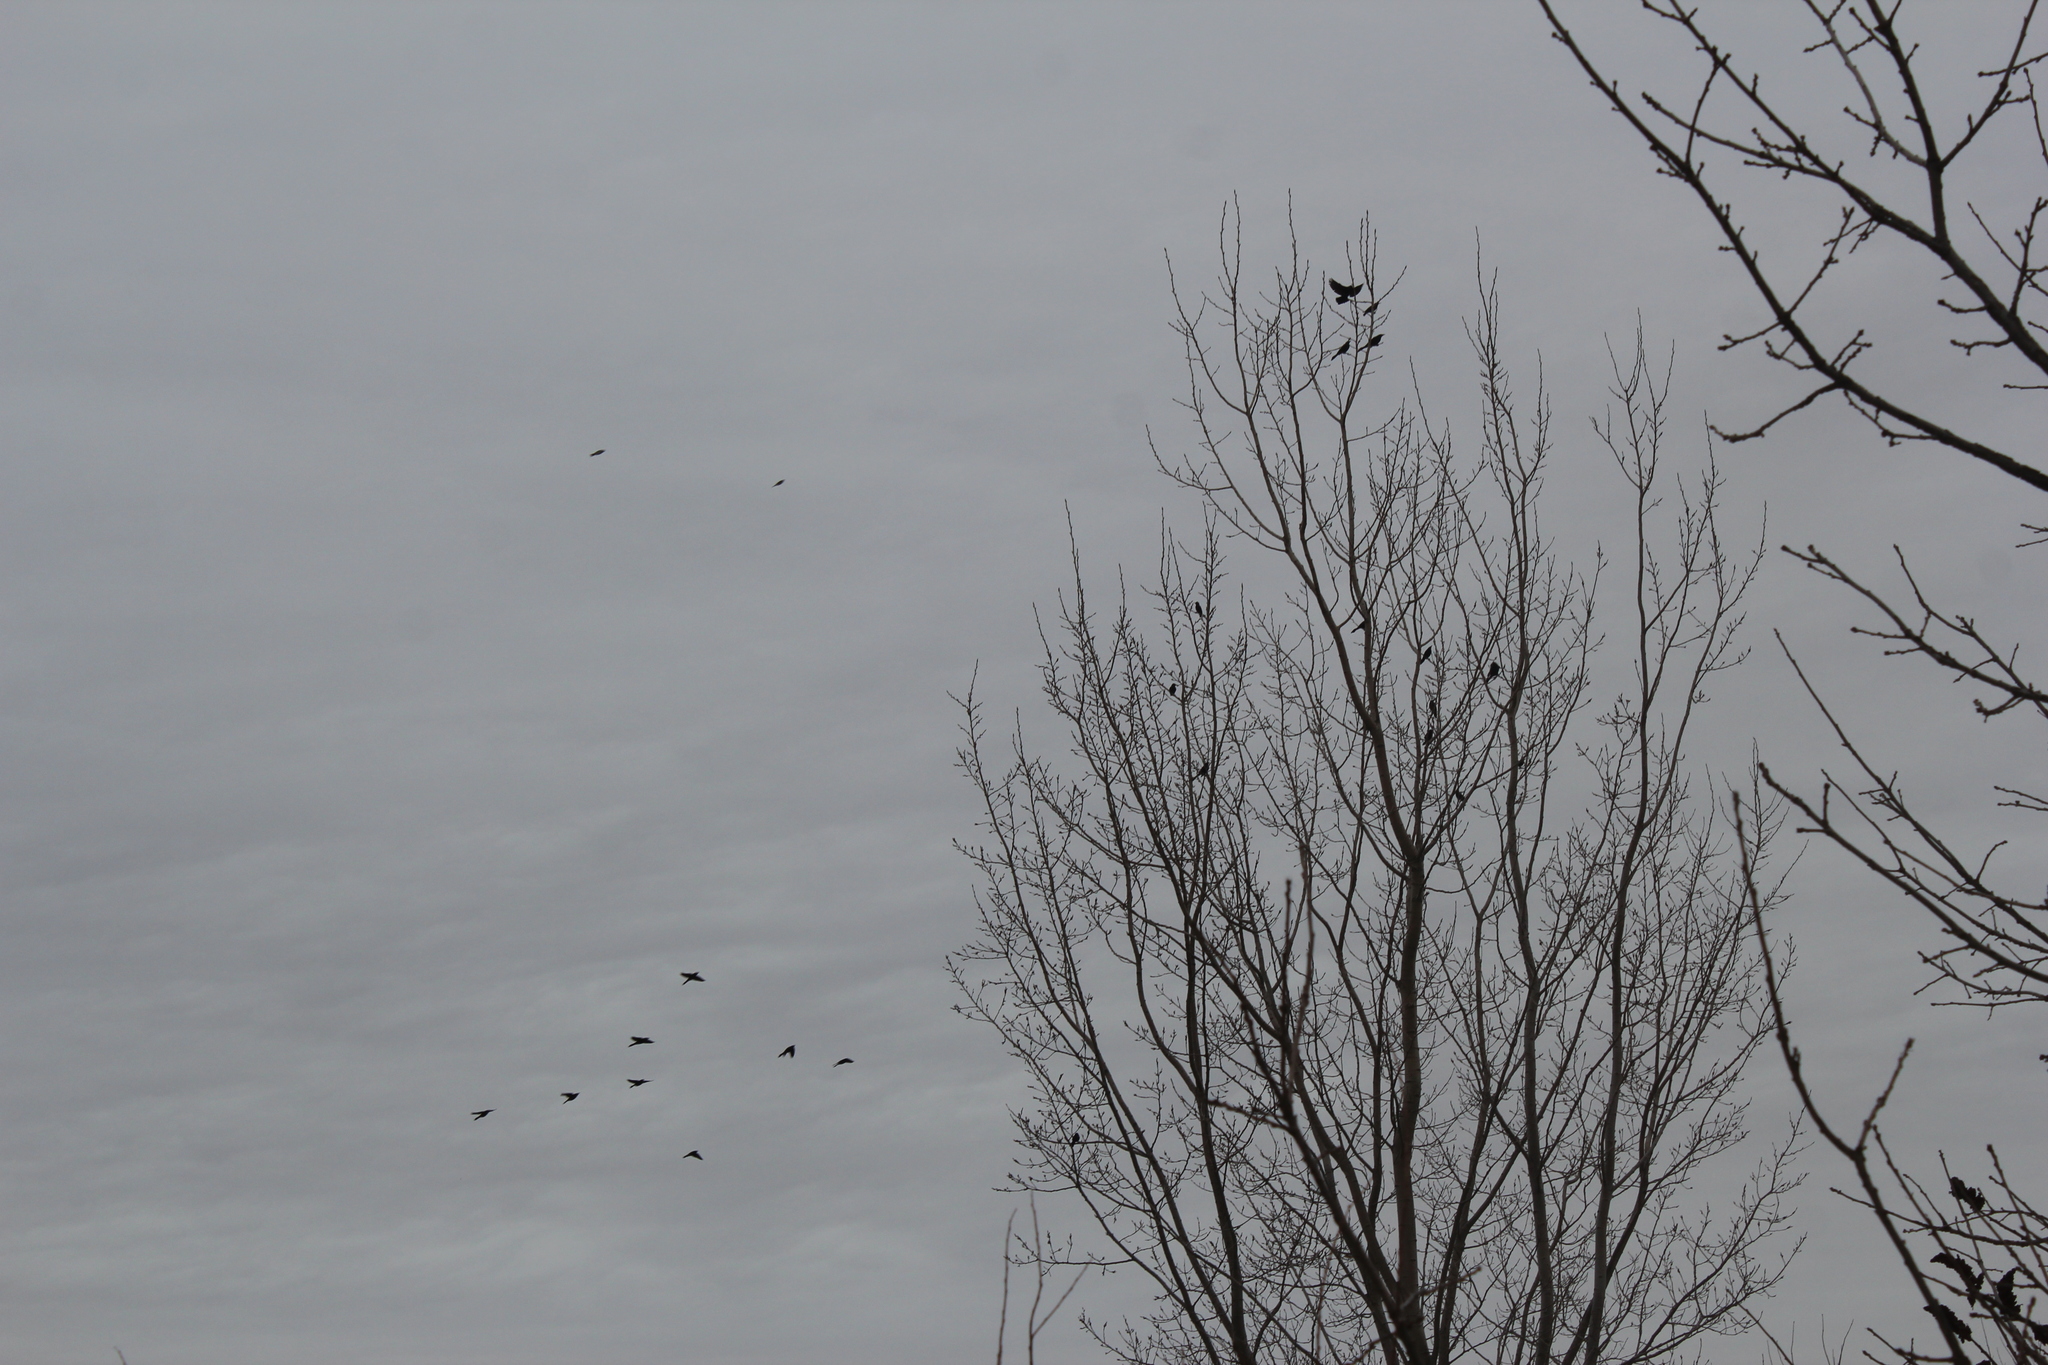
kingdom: Animalia
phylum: Chordata
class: Aves
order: Passeriformes
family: Icteridae
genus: Quiscalus
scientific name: Quiscalus quiscula
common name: Common grackle
